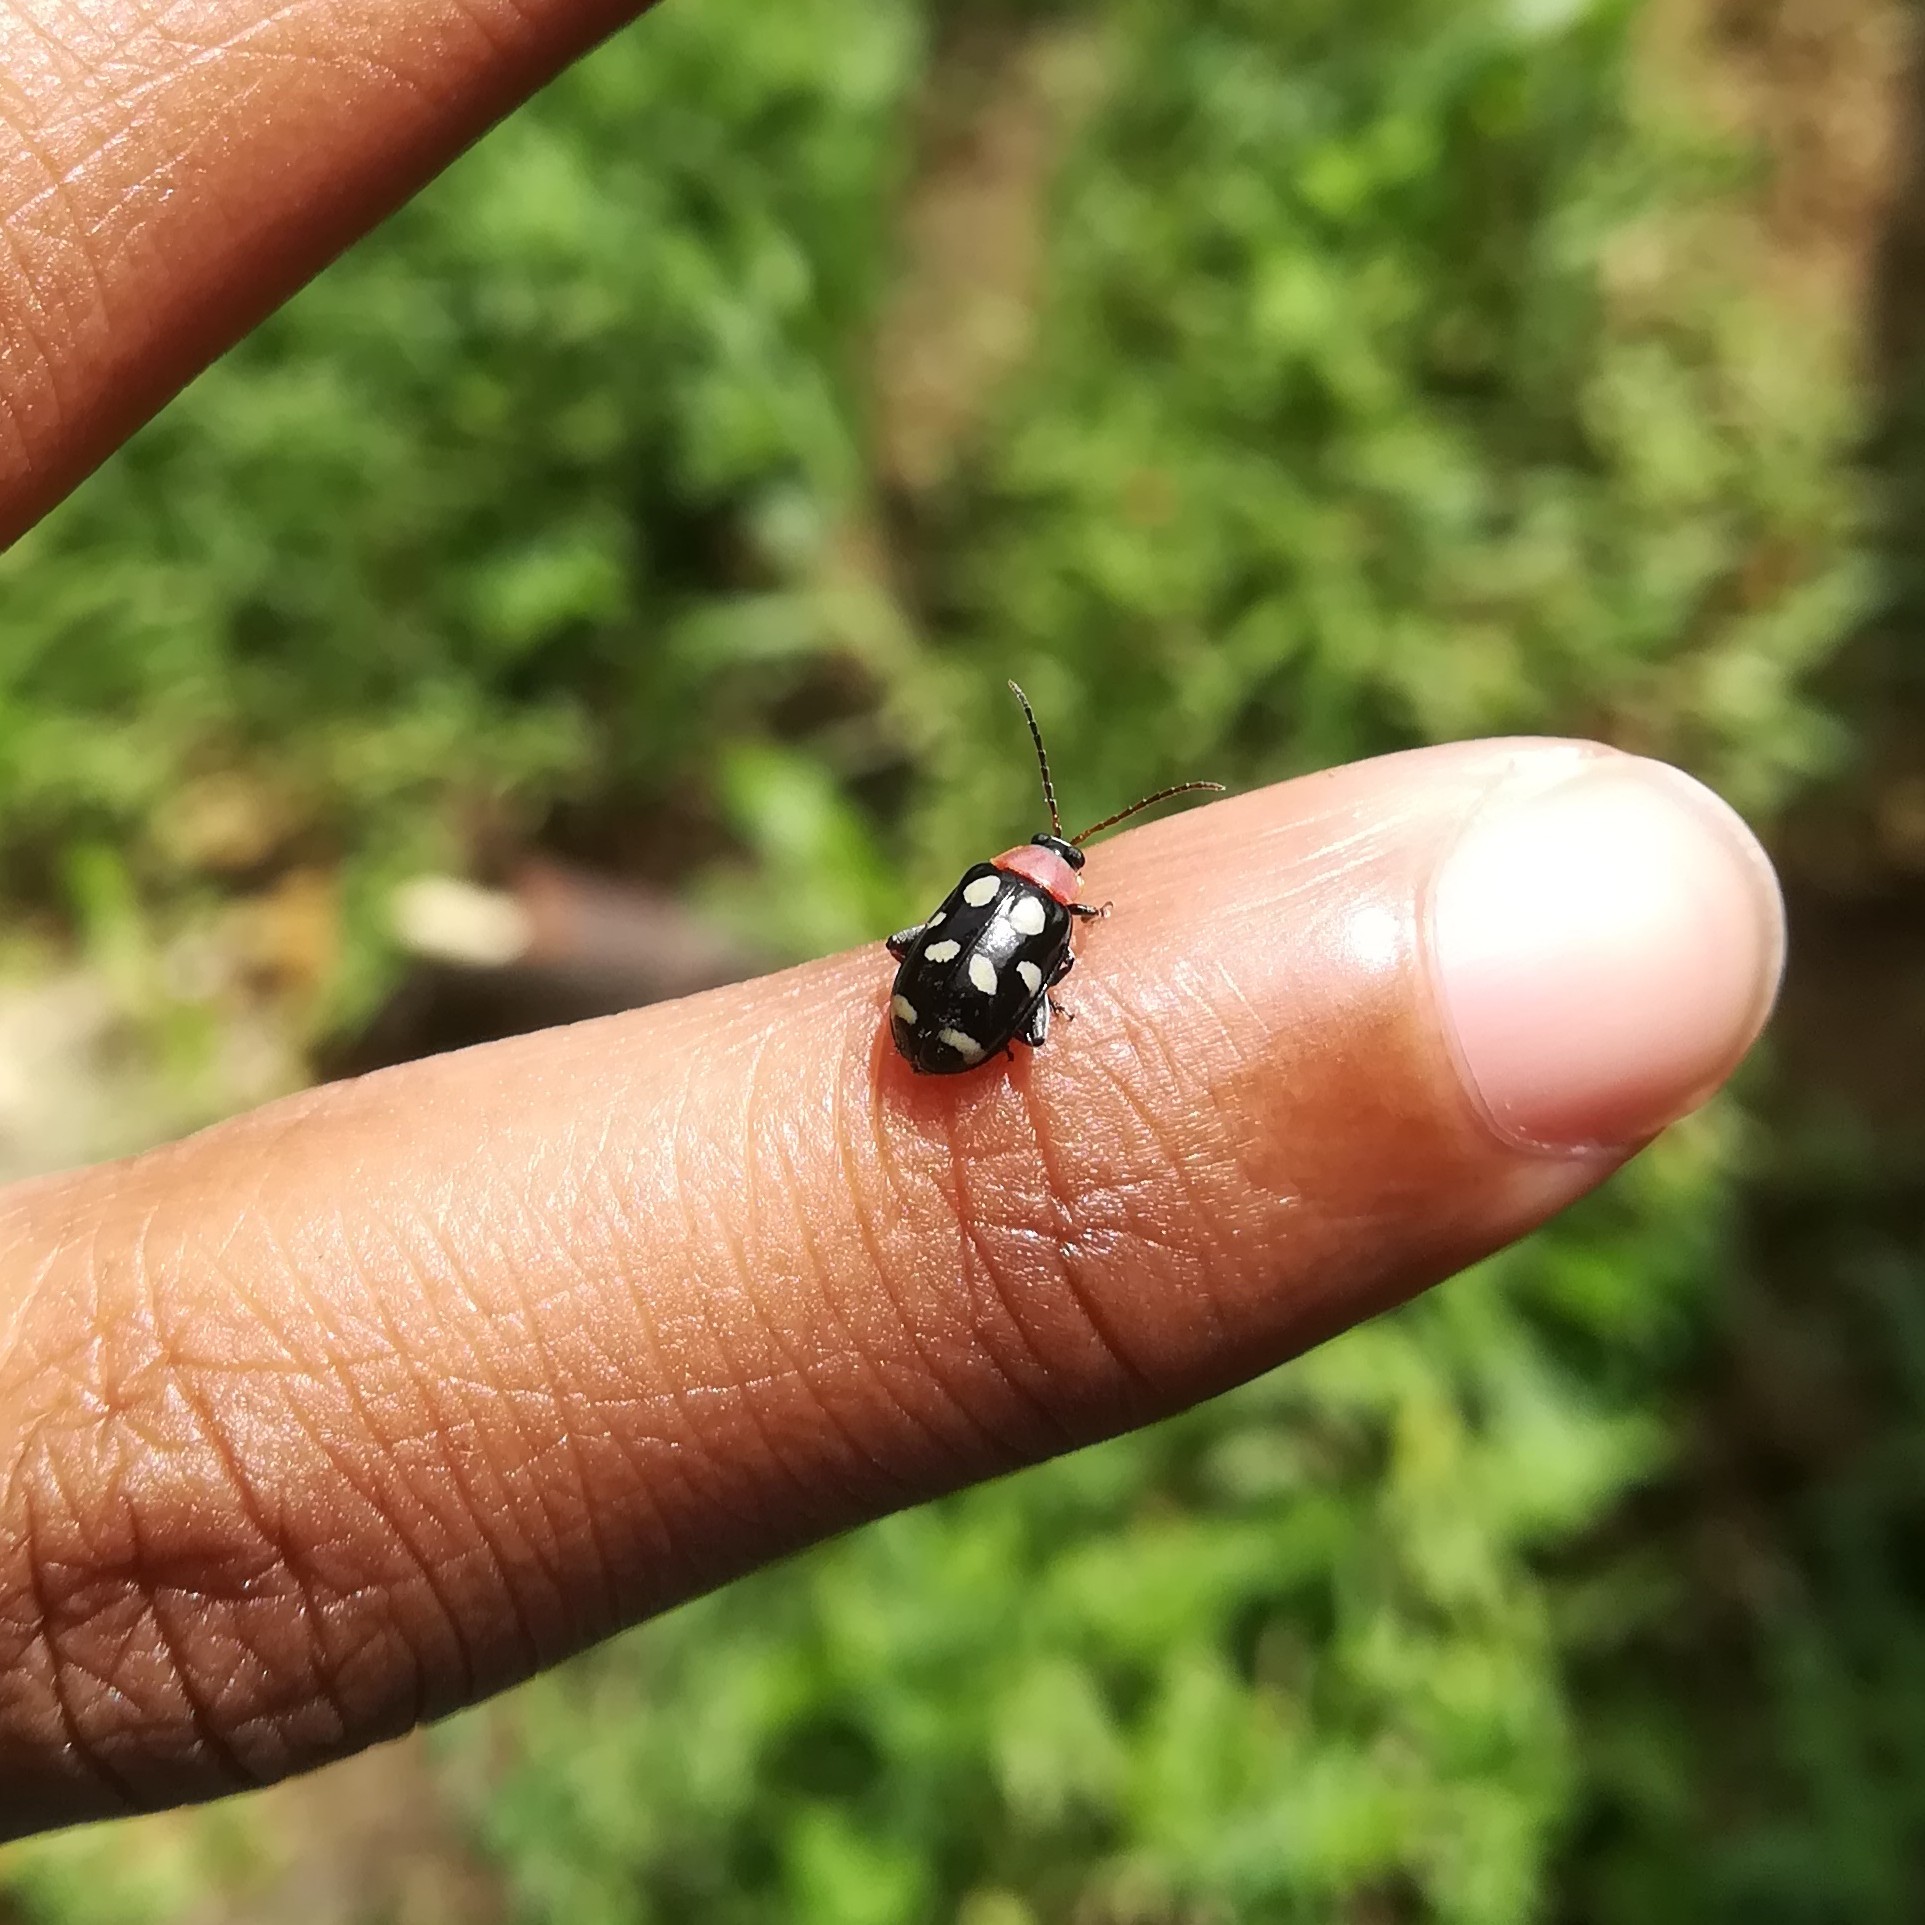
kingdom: Animalia
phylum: Arthropoda
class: Insecta
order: Coleoptera
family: Chrysomelidae
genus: Omophoita
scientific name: Omophoita aequinoctialis
